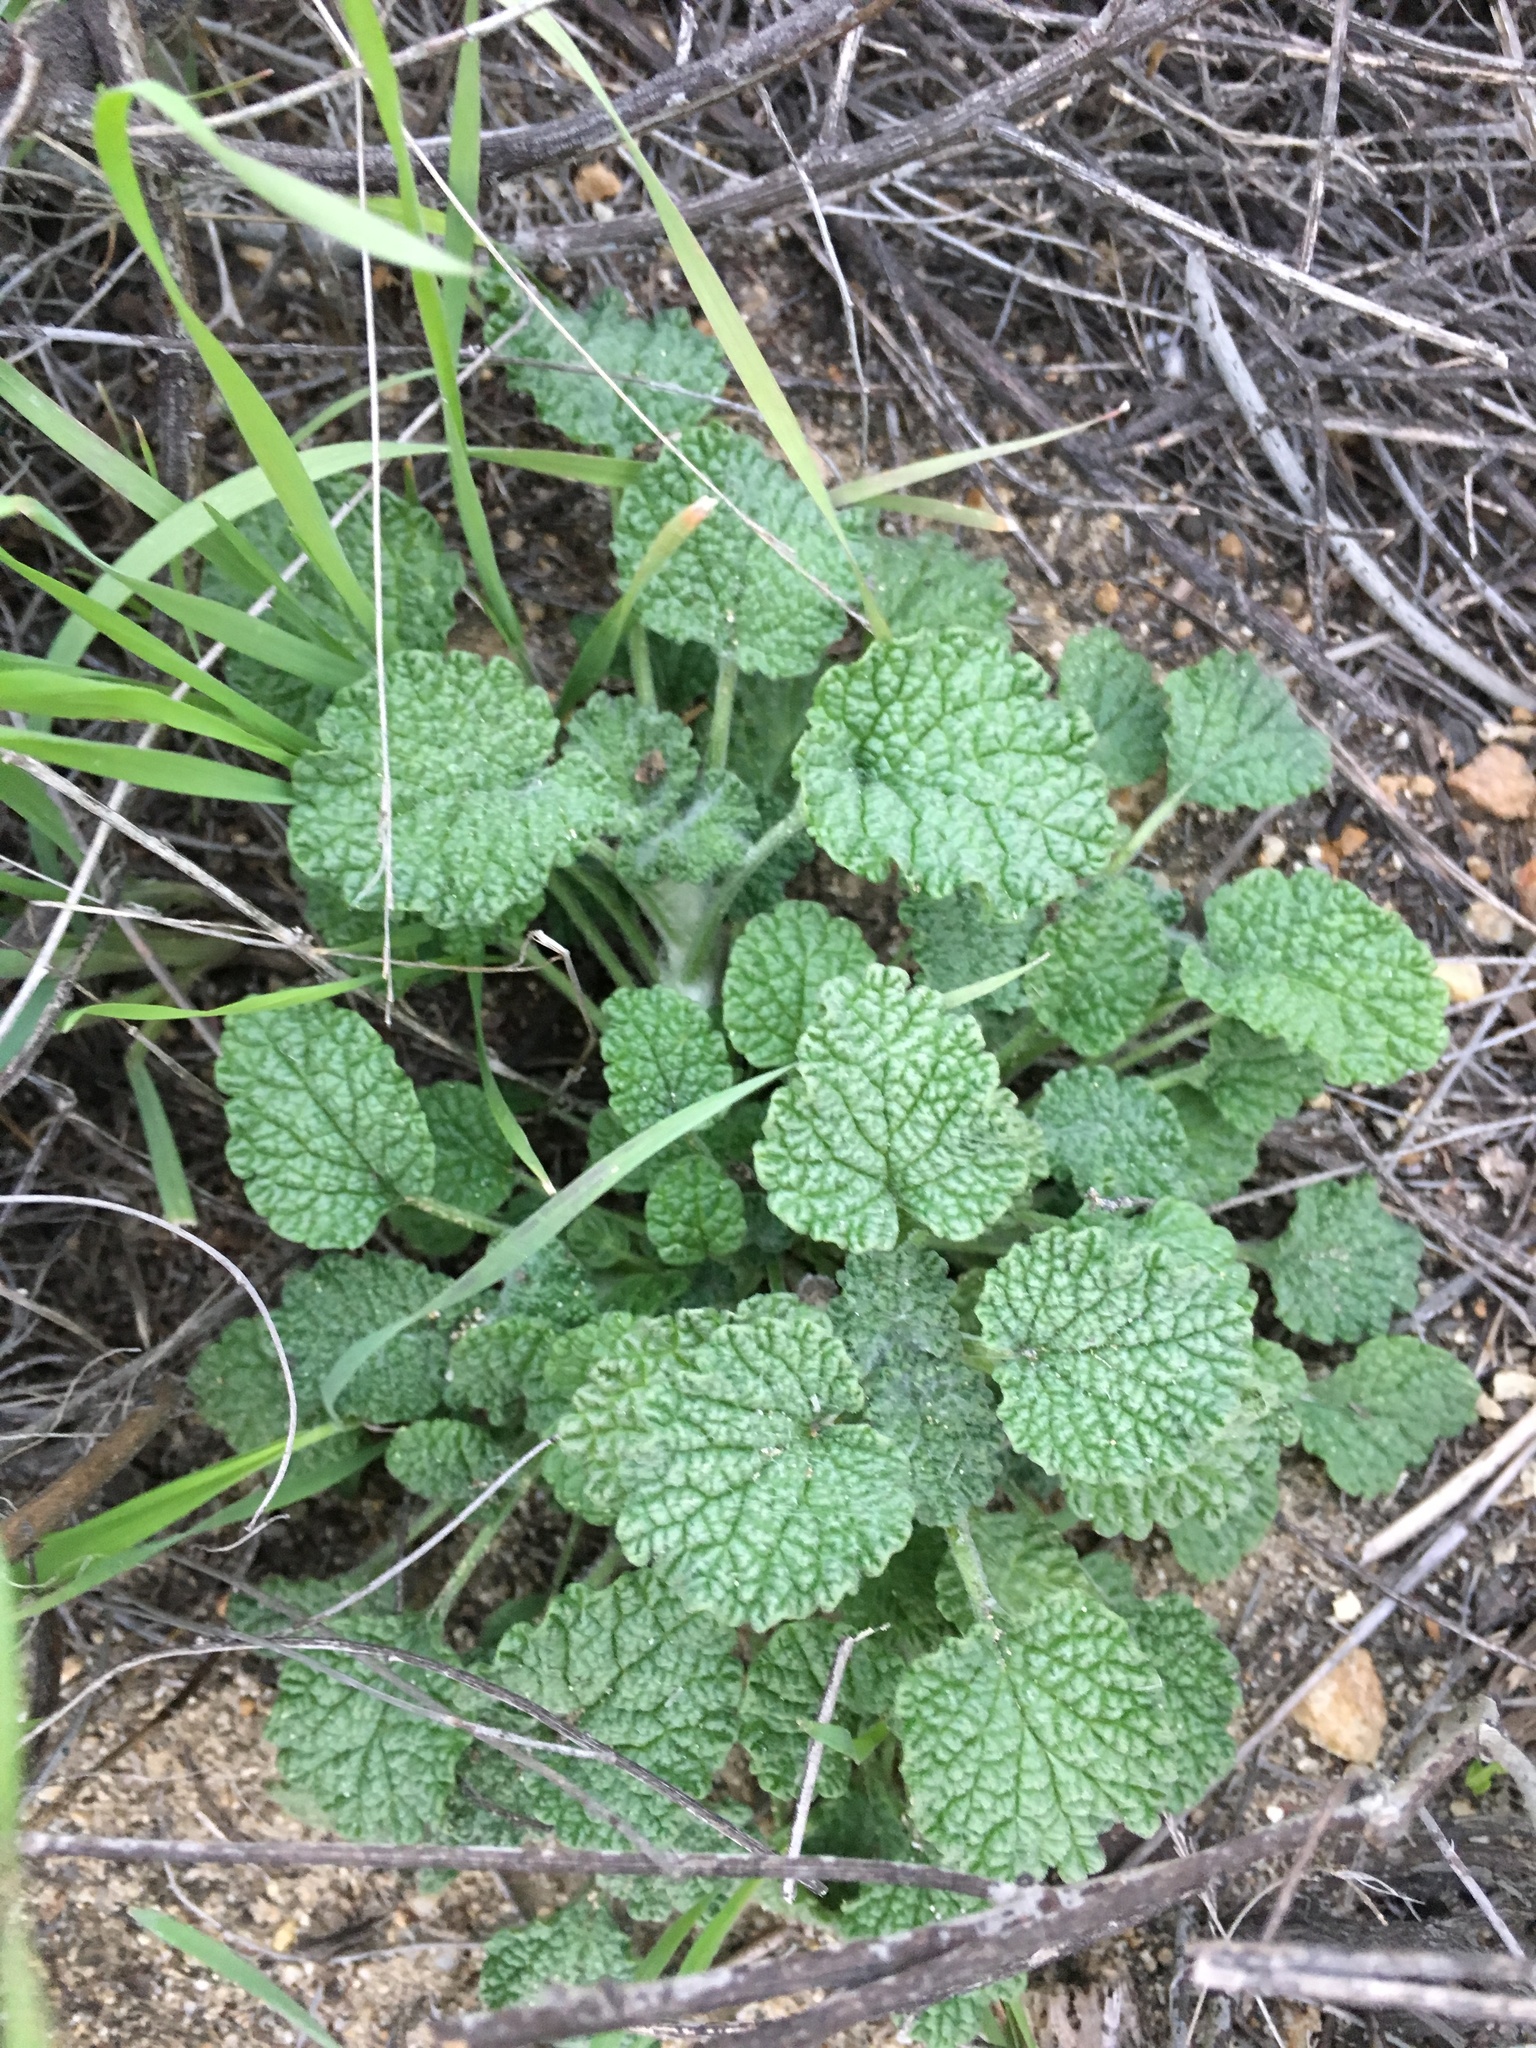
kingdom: Plantae
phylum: Tracheophyta
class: Magnoliopsida
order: Lamiales
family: Lamiaceae
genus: Marrubium
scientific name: Marrubium vulgare
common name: Horehound
